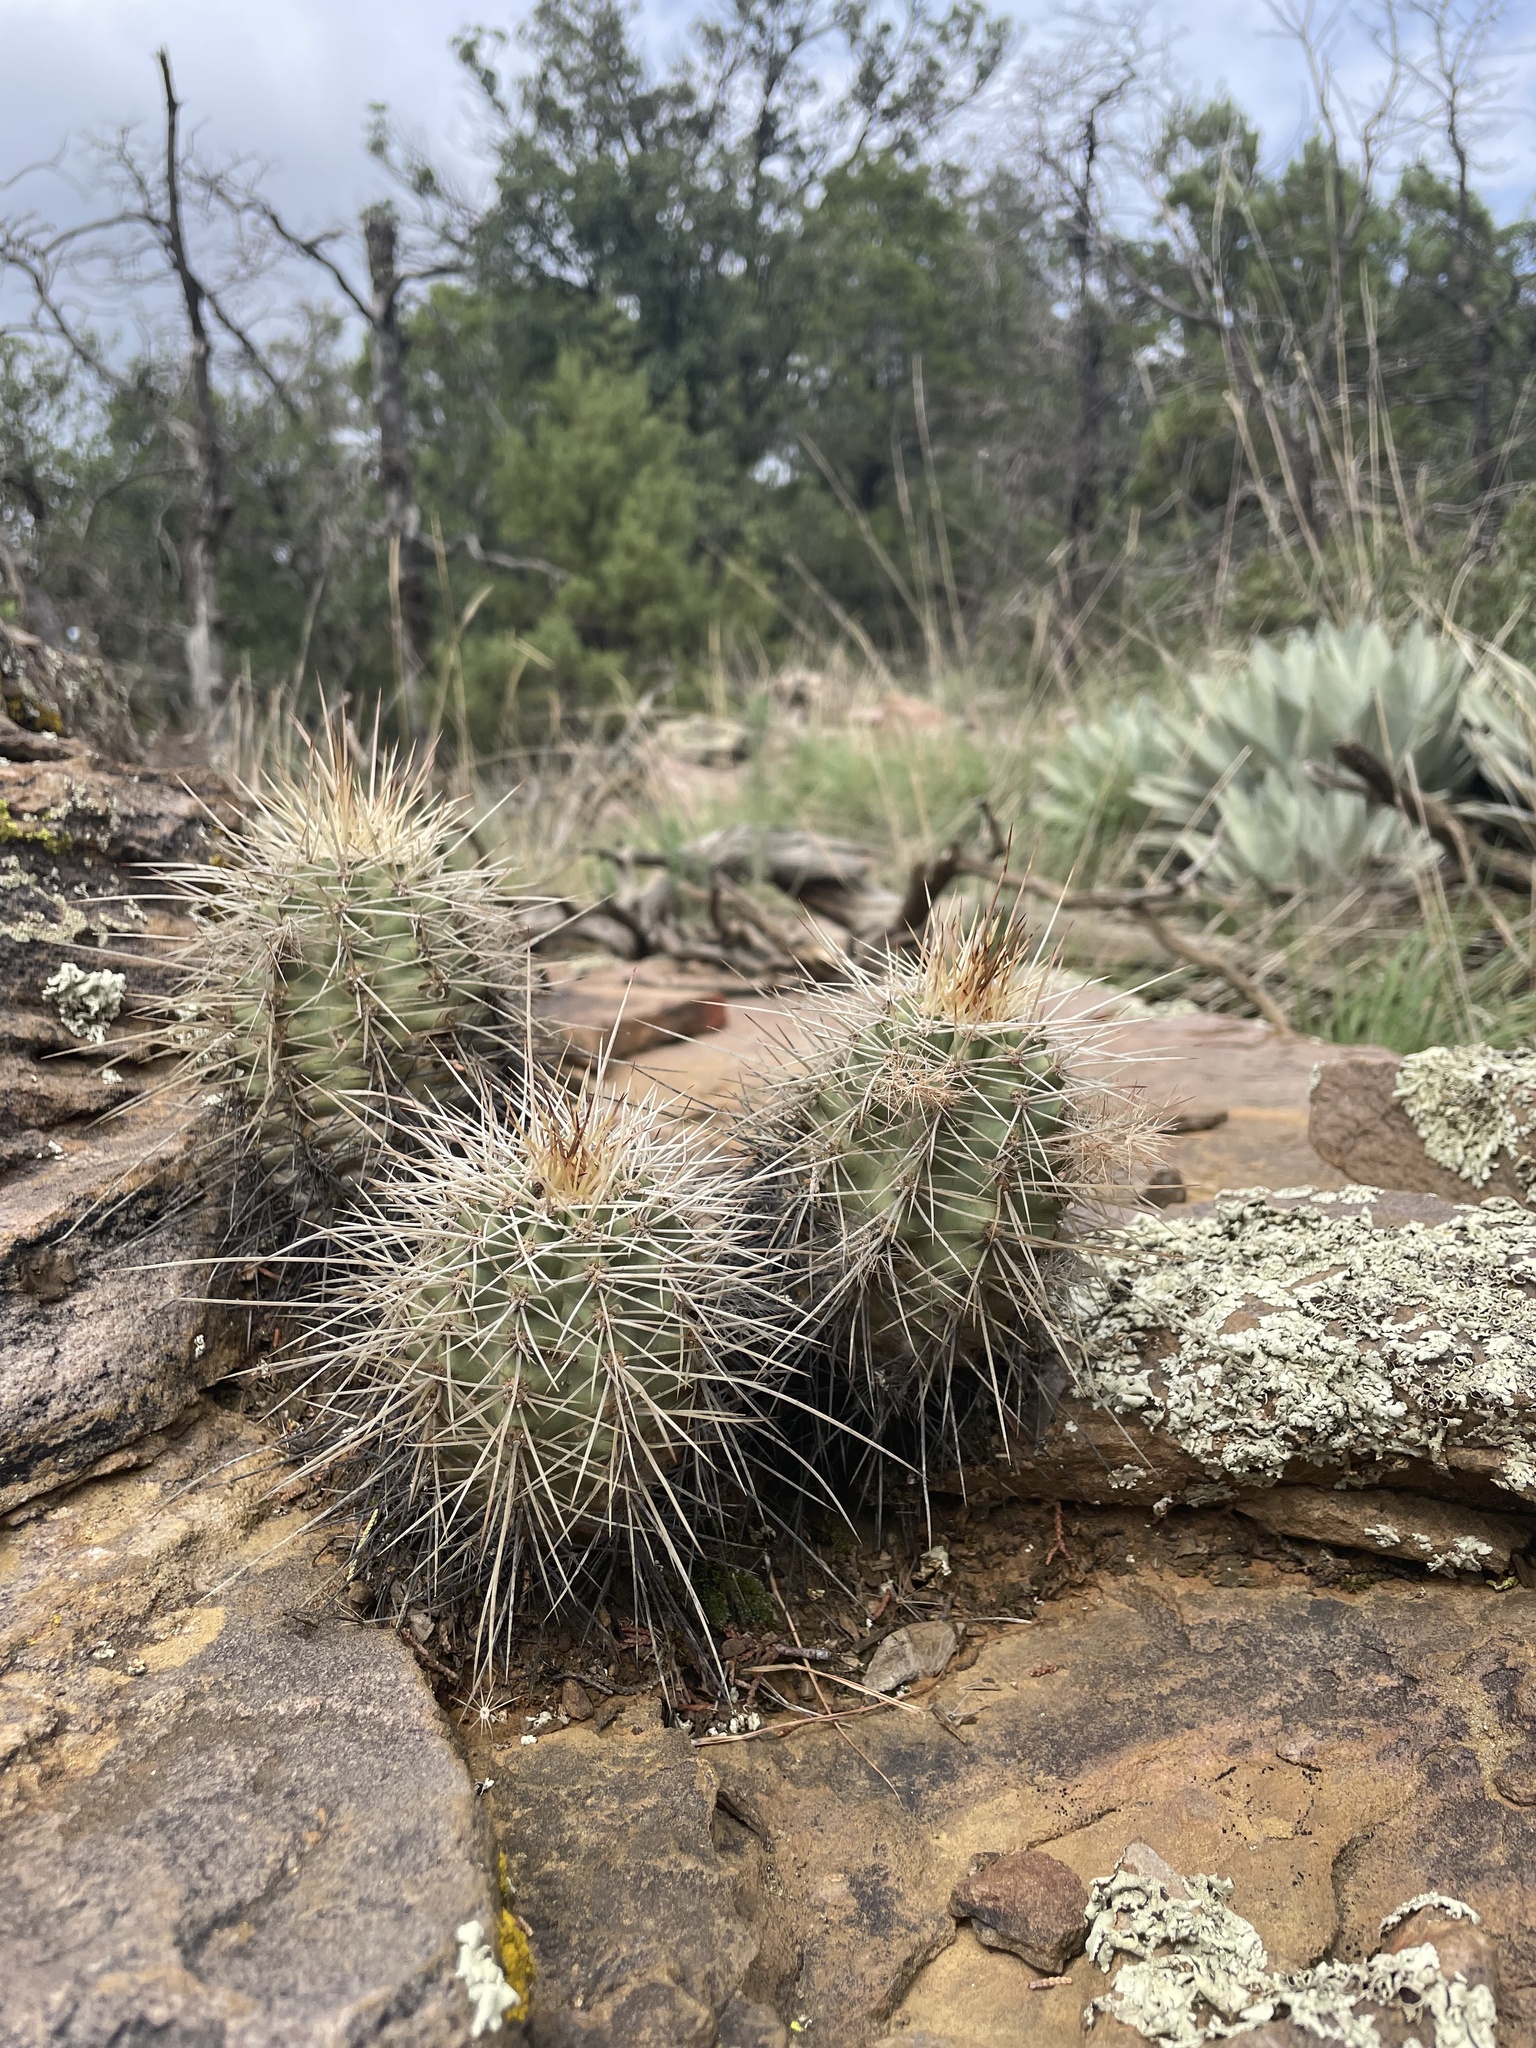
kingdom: Plantae
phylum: Tracheophyta
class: Magnoliopsida
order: Caryophyllales
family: Cactaceae
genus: Echinocereus
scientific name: Echinocereus bakeri
